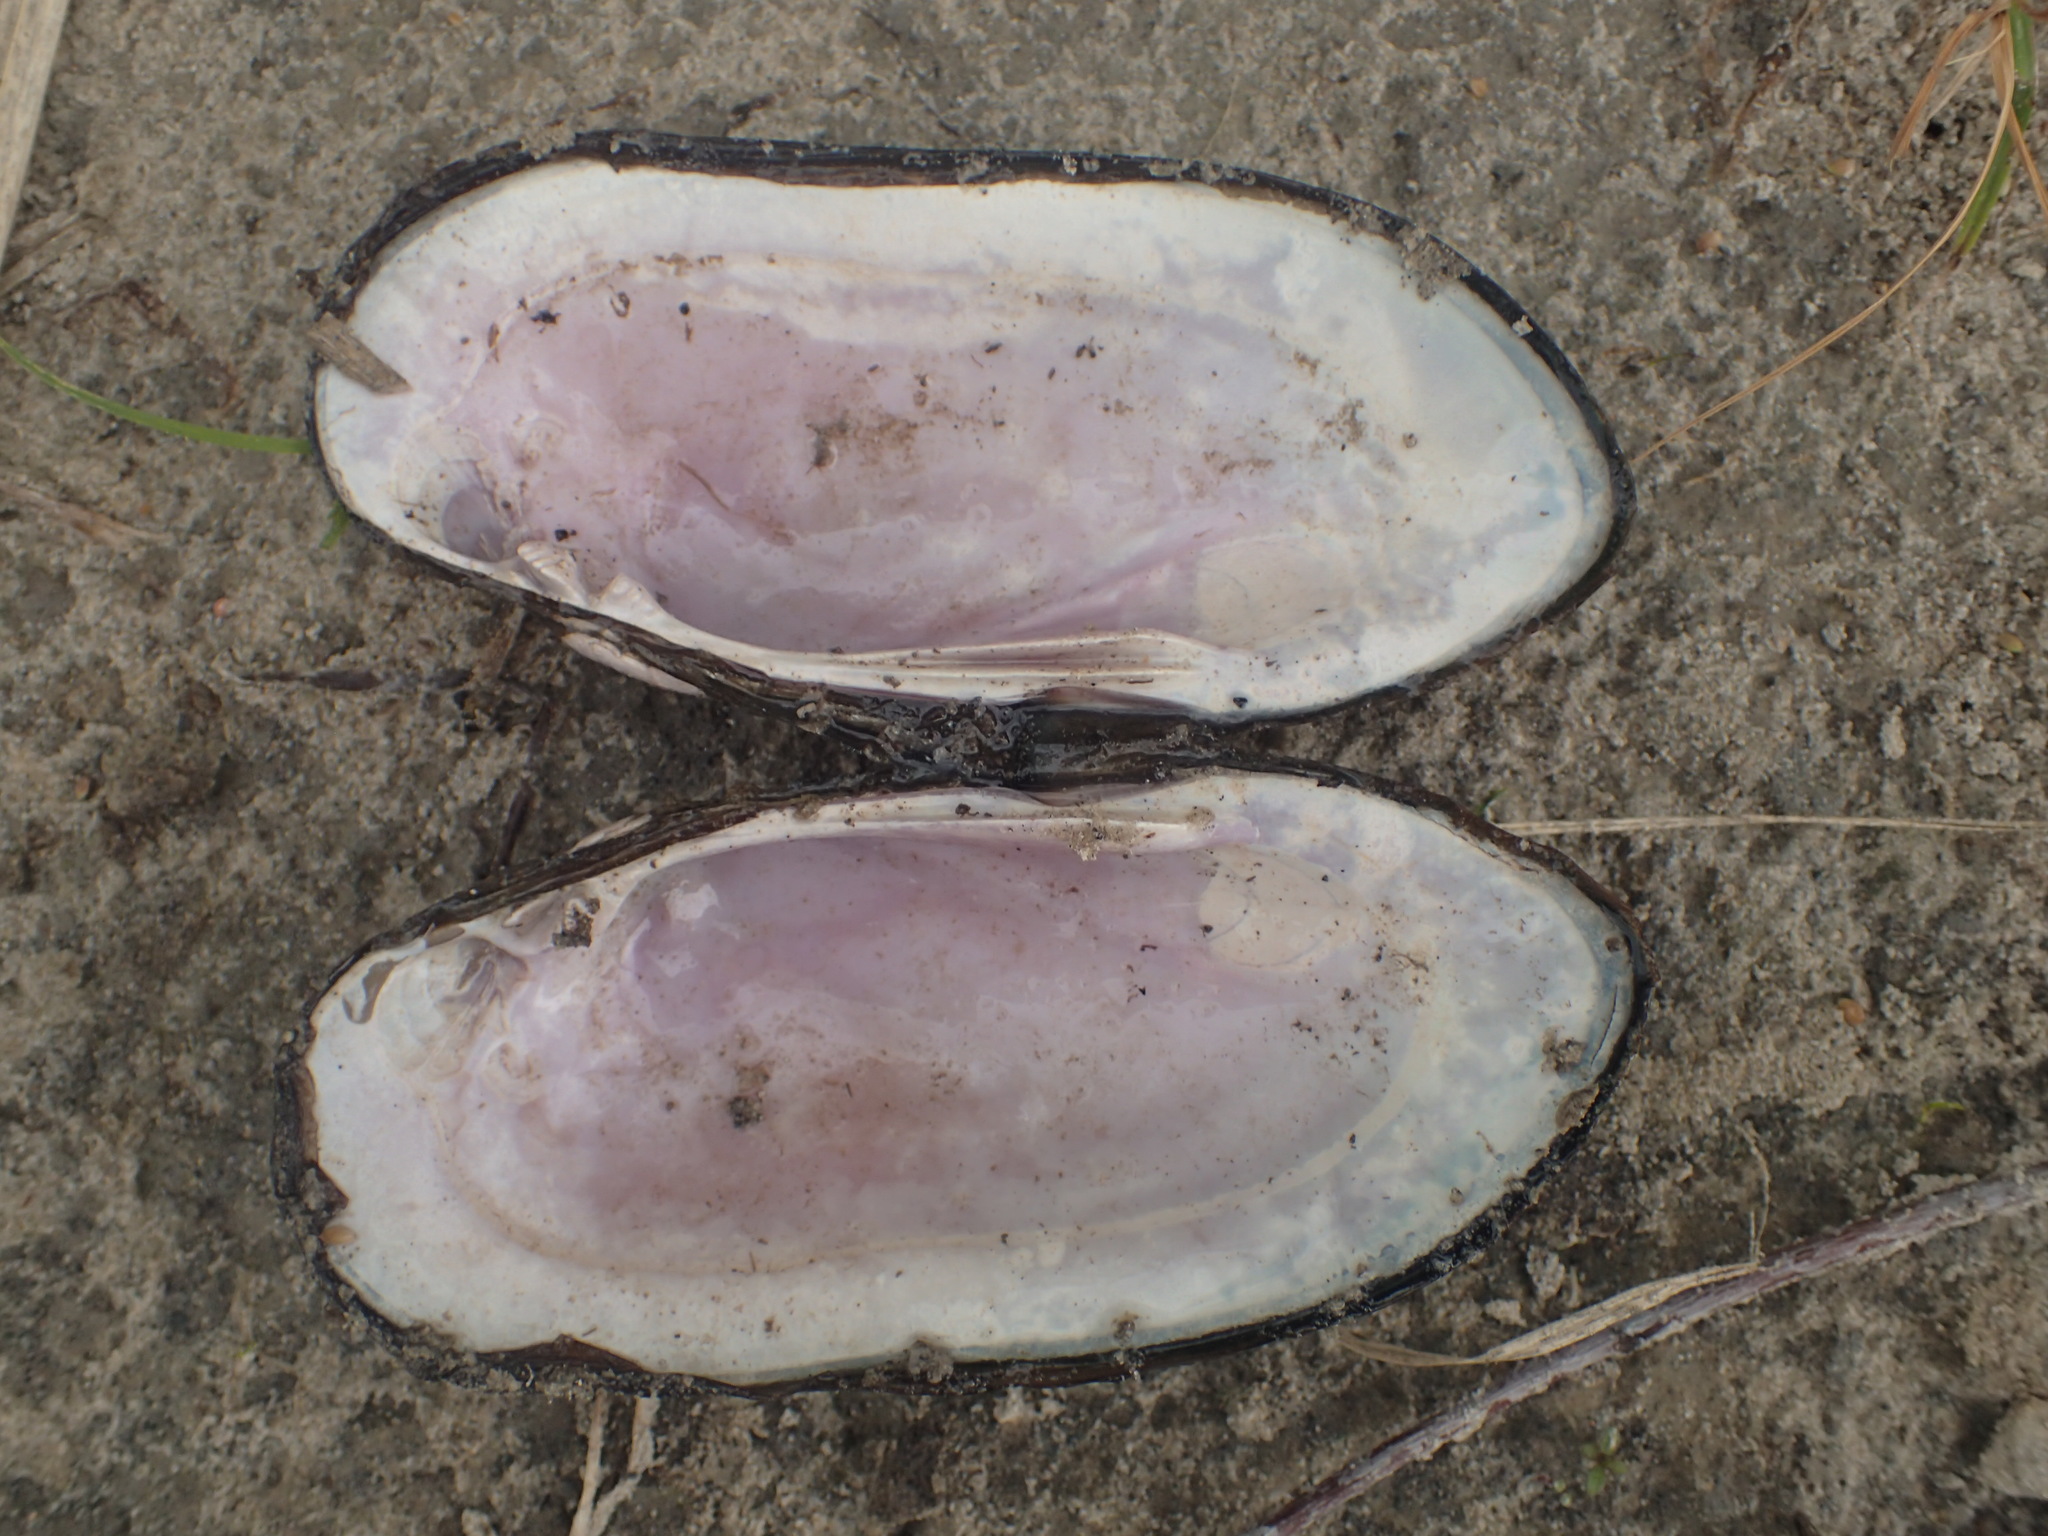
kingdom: Animalia
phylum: Mollusca
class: Bivalvia
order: Unionida
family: Unionidae
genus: Ligumia
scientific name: Ligumia recta
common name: Black sandshell
